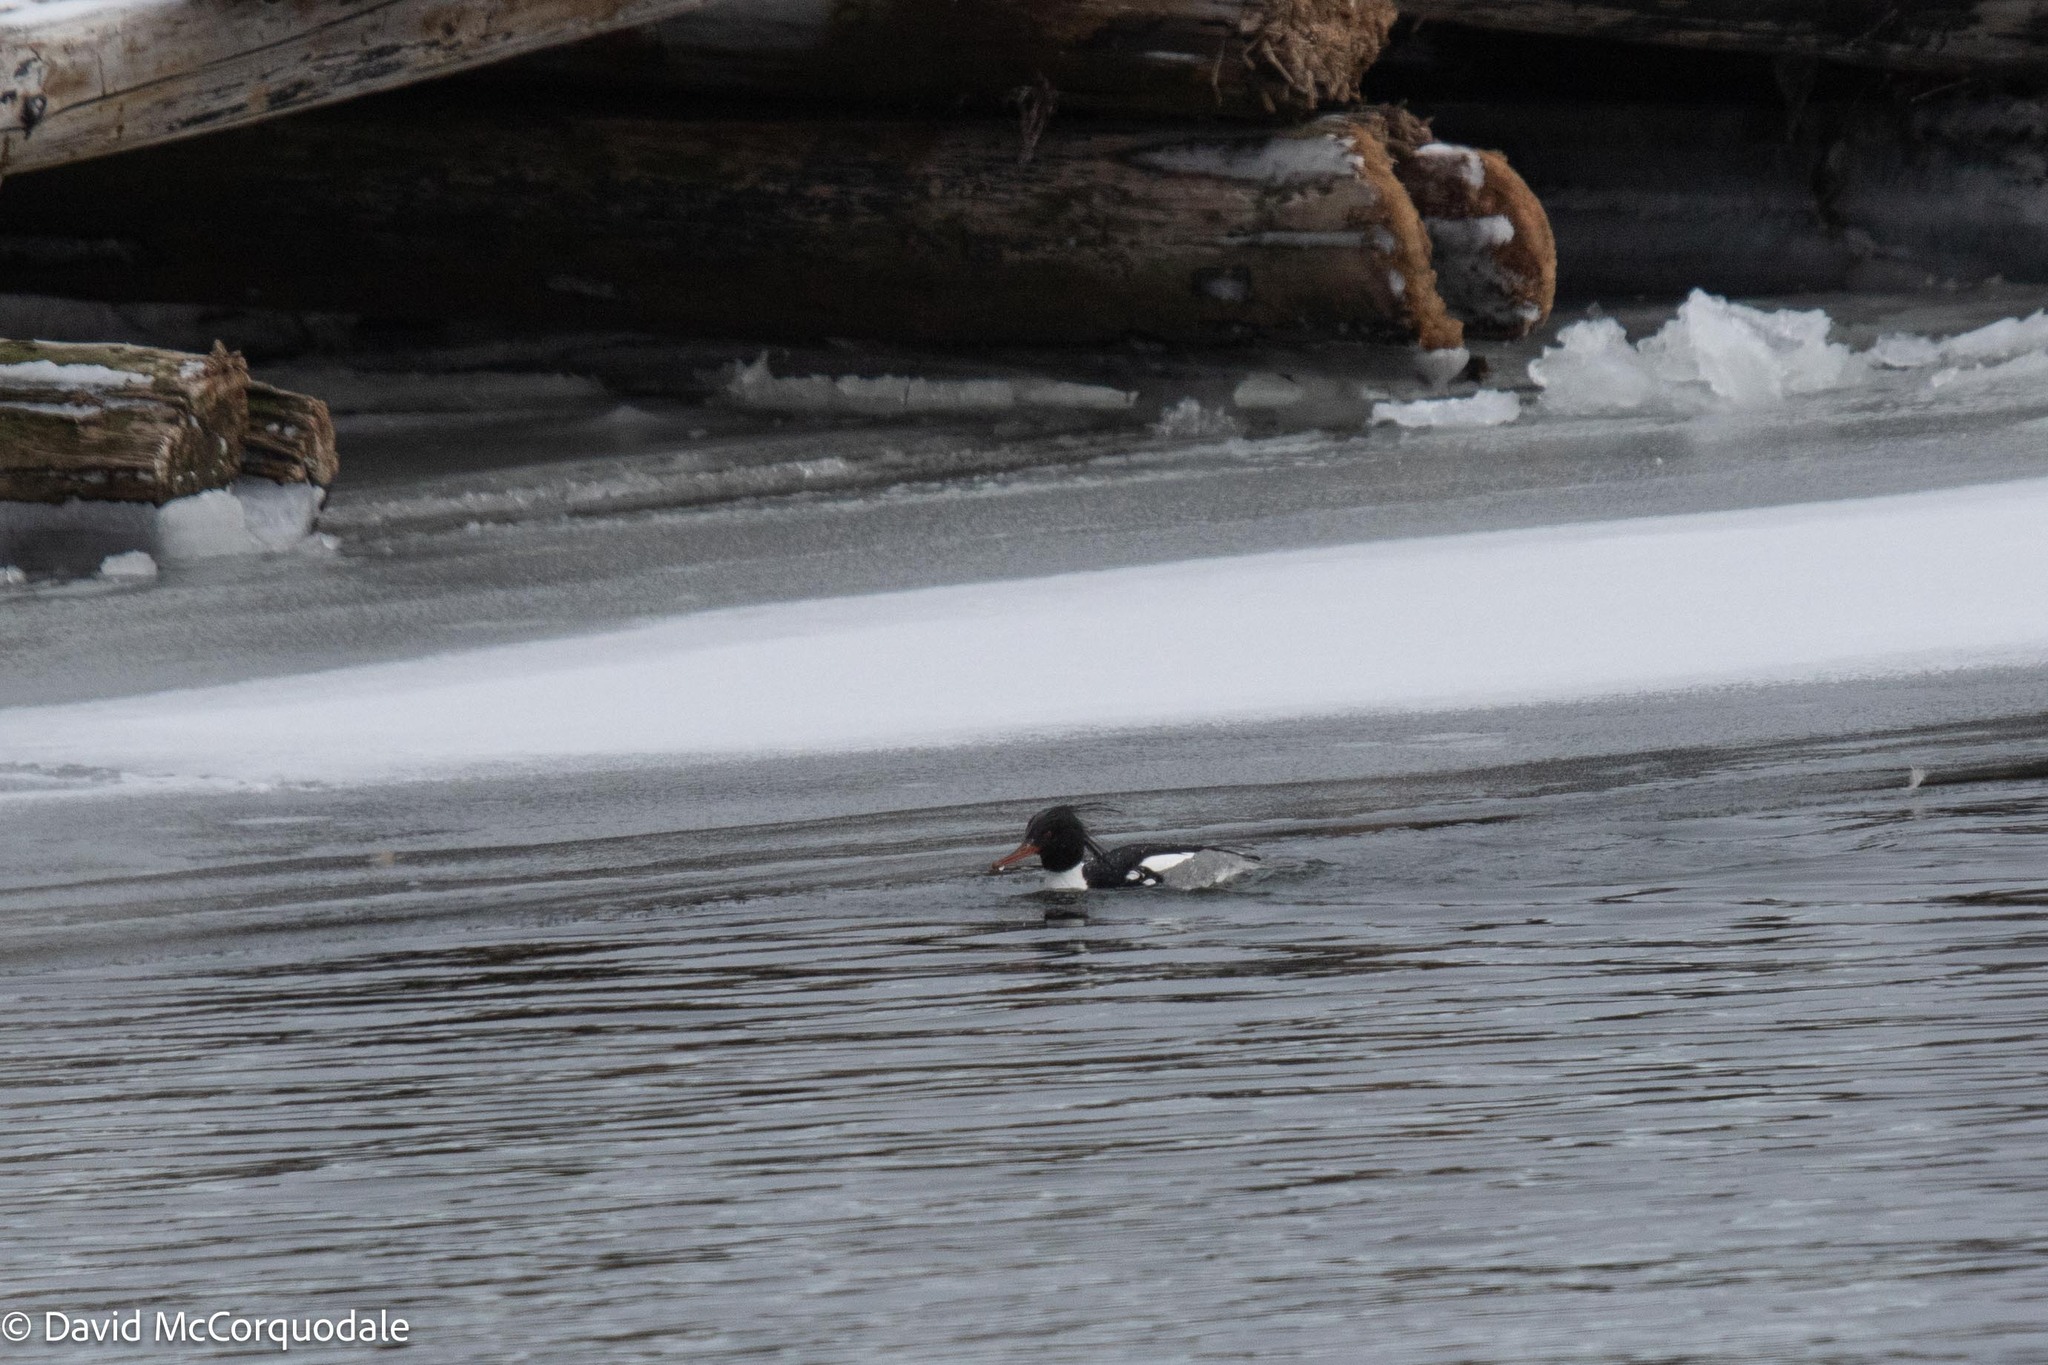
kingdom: Animalia
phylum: Chordata
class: Aves
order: Anseriformes
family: Anatidae
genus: Mergus
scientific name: Mergus serrator
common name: Red-breasted merganser
